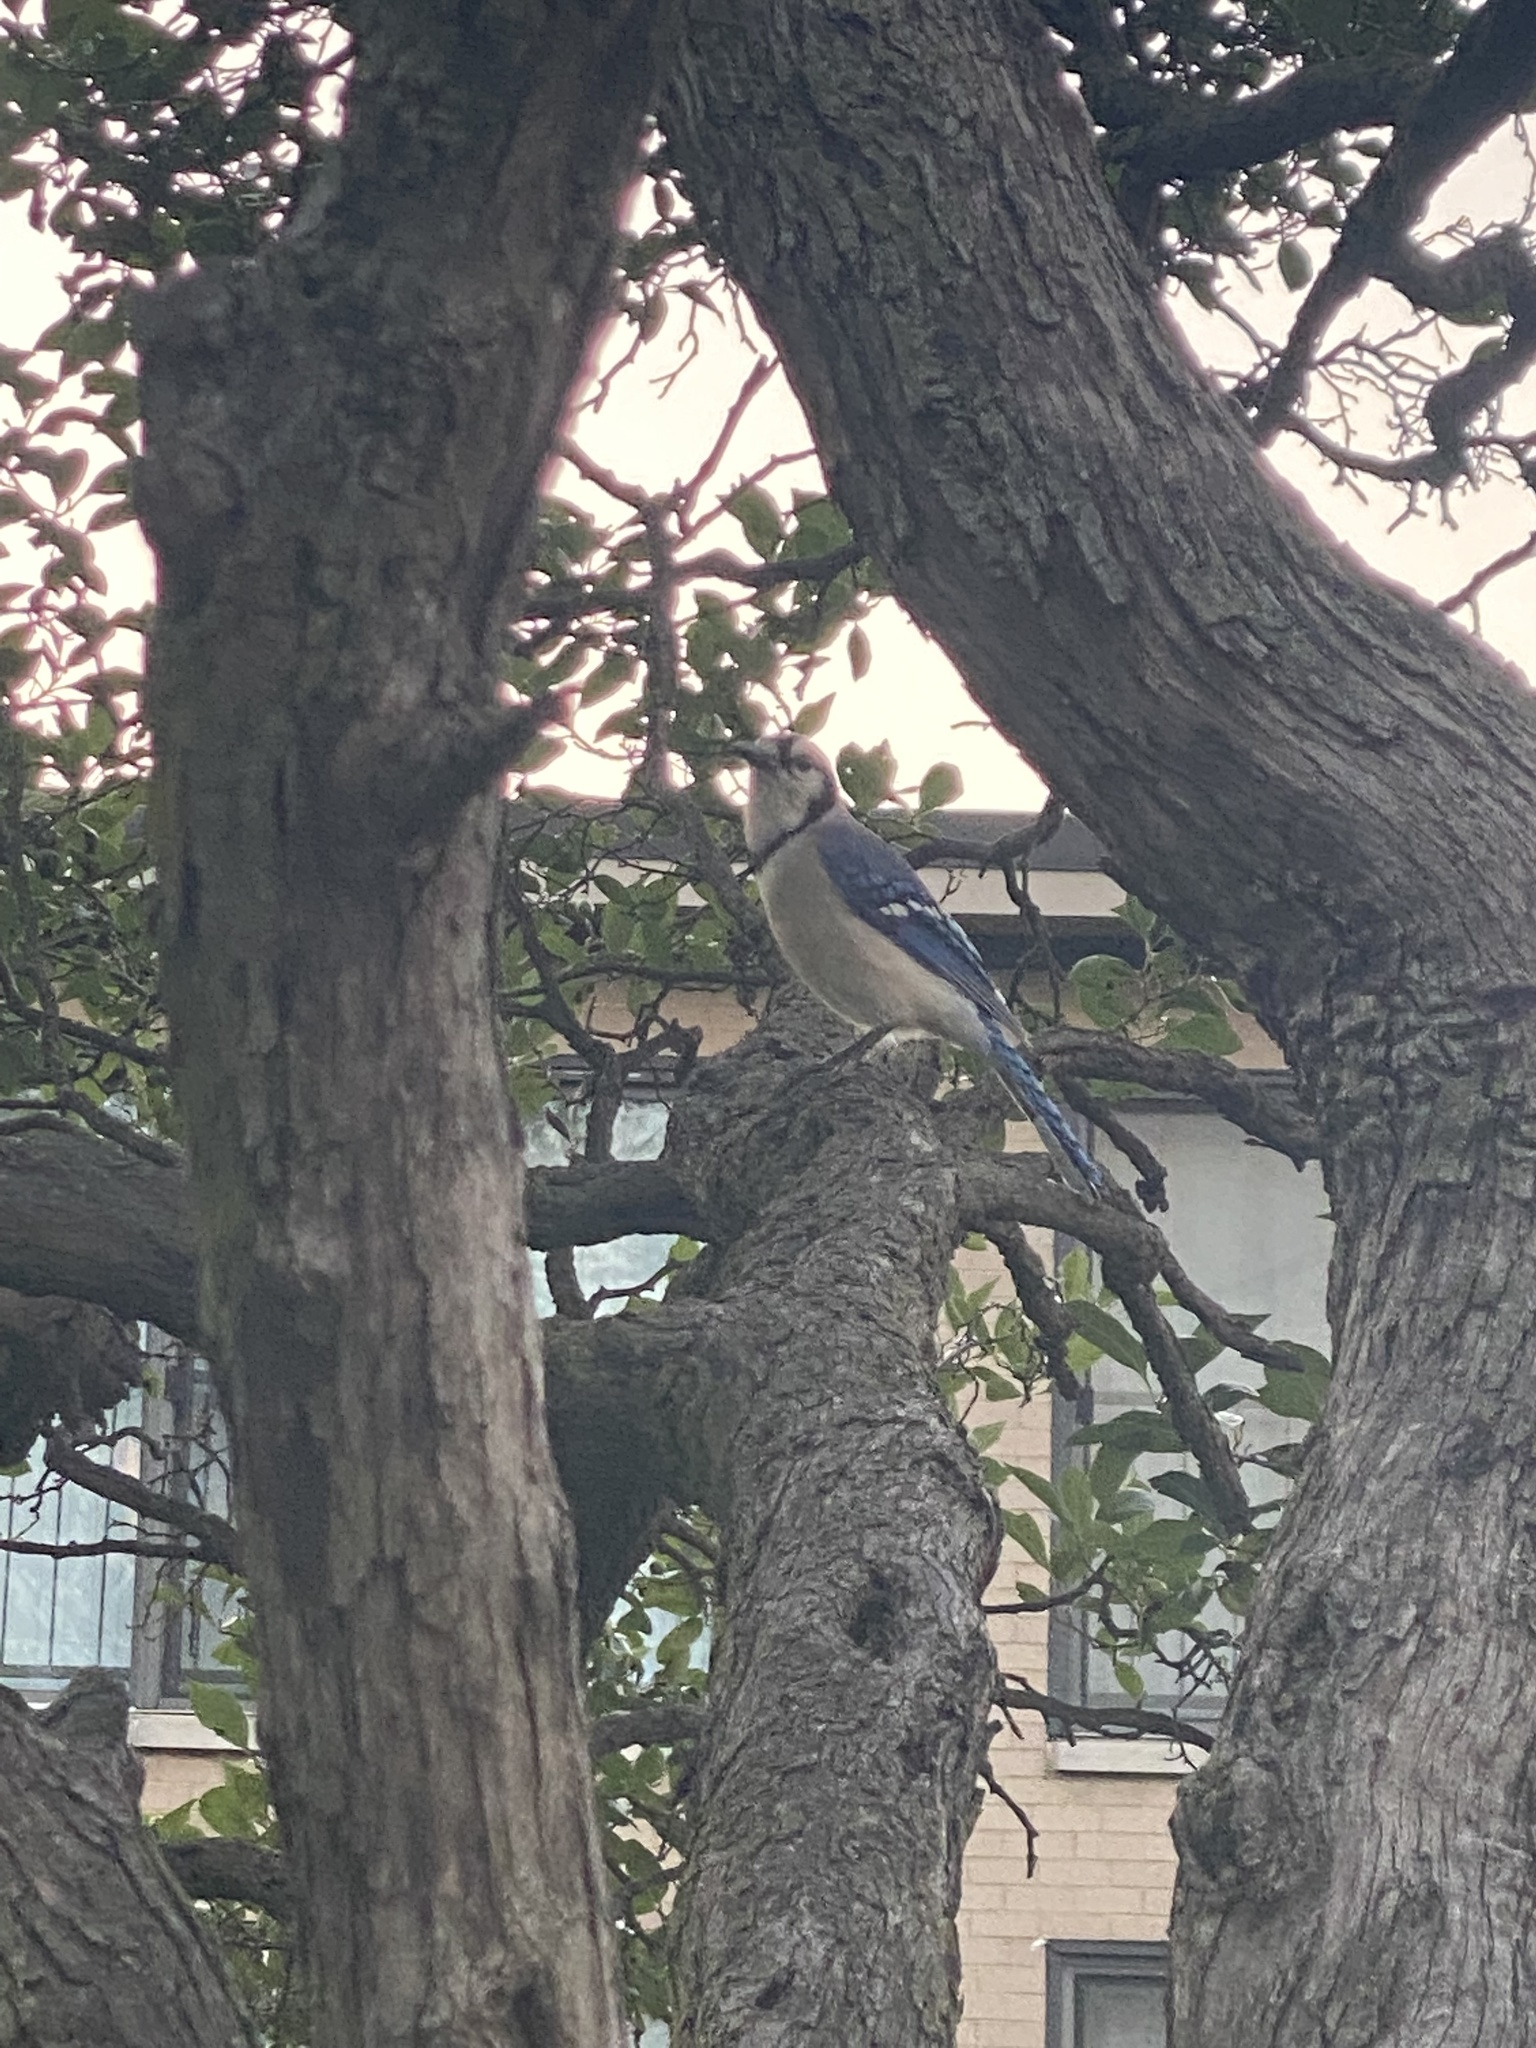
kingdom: Animalia
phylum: Chordata
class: Aves
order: Passeriformes
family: Corvidae
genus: Cyanocitta
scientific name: Cyanocitta cristata
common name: Blue jay
